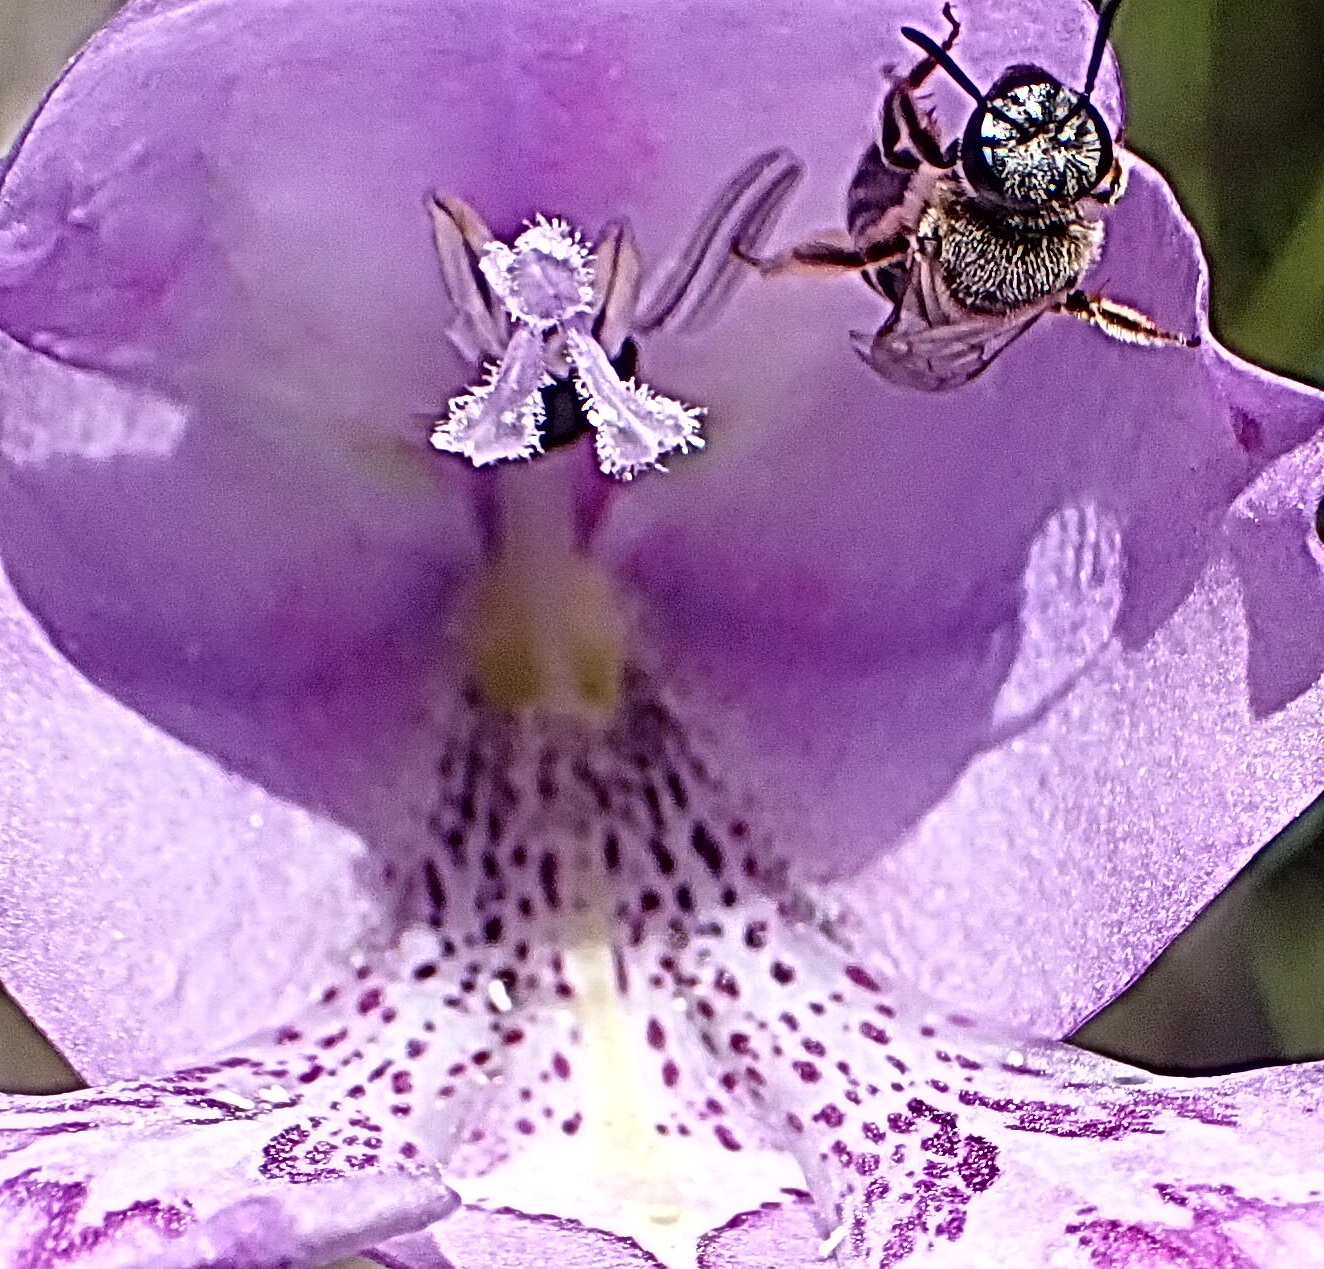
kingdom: Plantae
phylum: Tracheophyta
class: Liliopsida
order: Asparagales
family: Iridaceae
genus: Gladiolus
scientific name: Gladiolus rogersii
